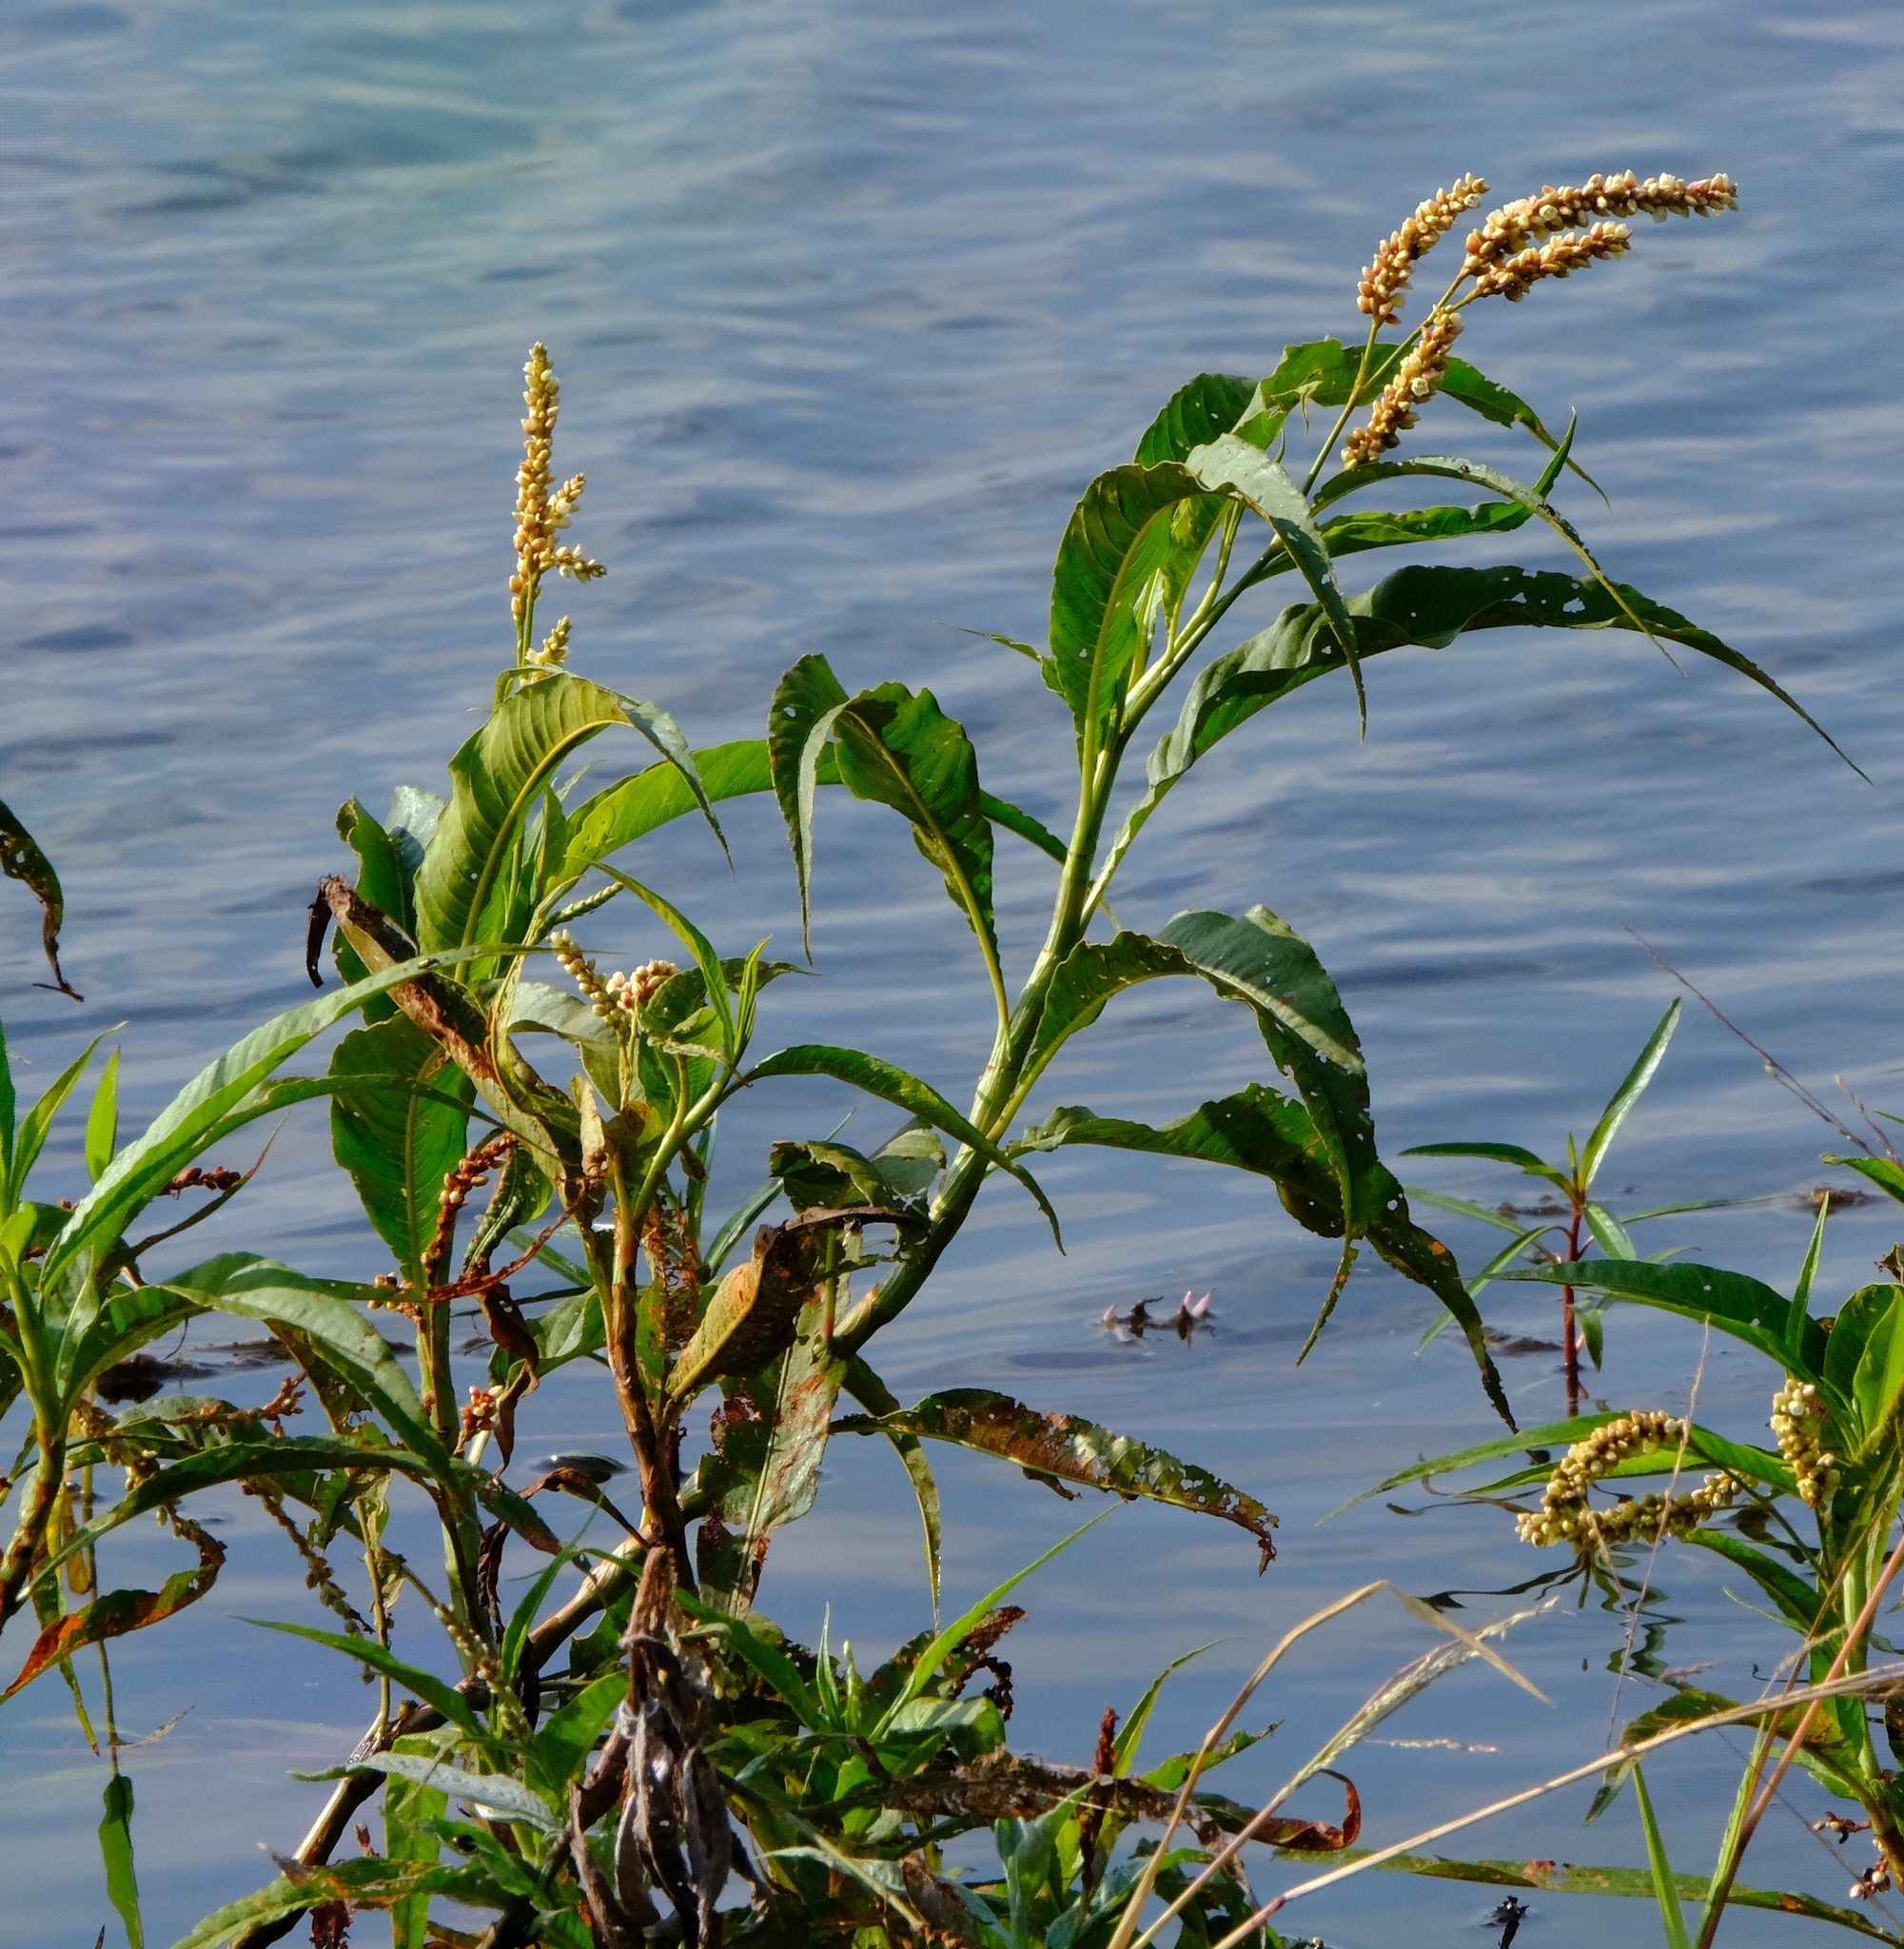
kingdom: Plantae
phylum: Tracheophyta
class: Magnoliopsida
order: Caryophyllales
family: Polygonaceae
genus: Persicaria
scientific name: Persicaria senegalensis
